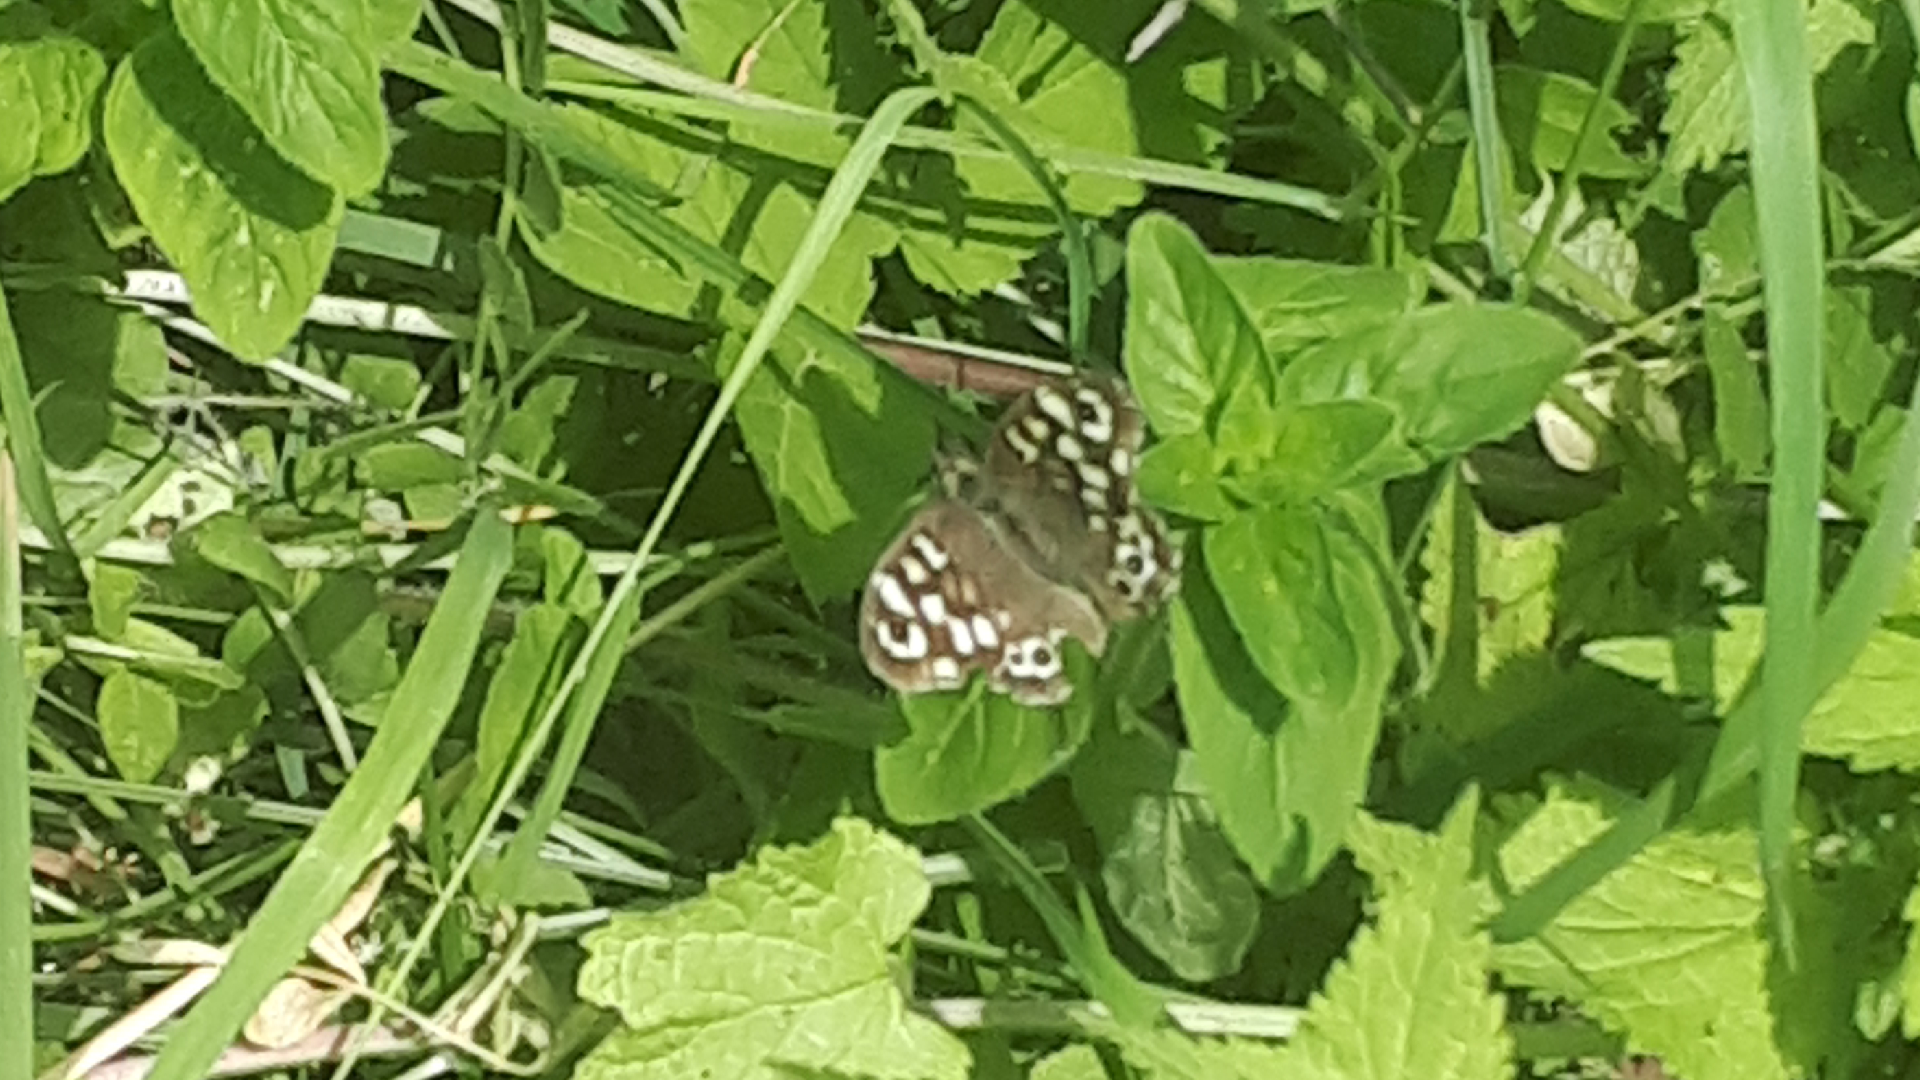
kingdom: Animalia
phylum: Arthropoda
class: Insecta
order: Lepidoptera
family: Nymphalidae
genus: Pararge
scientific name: Pararge aegeria
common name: Speckled wood
